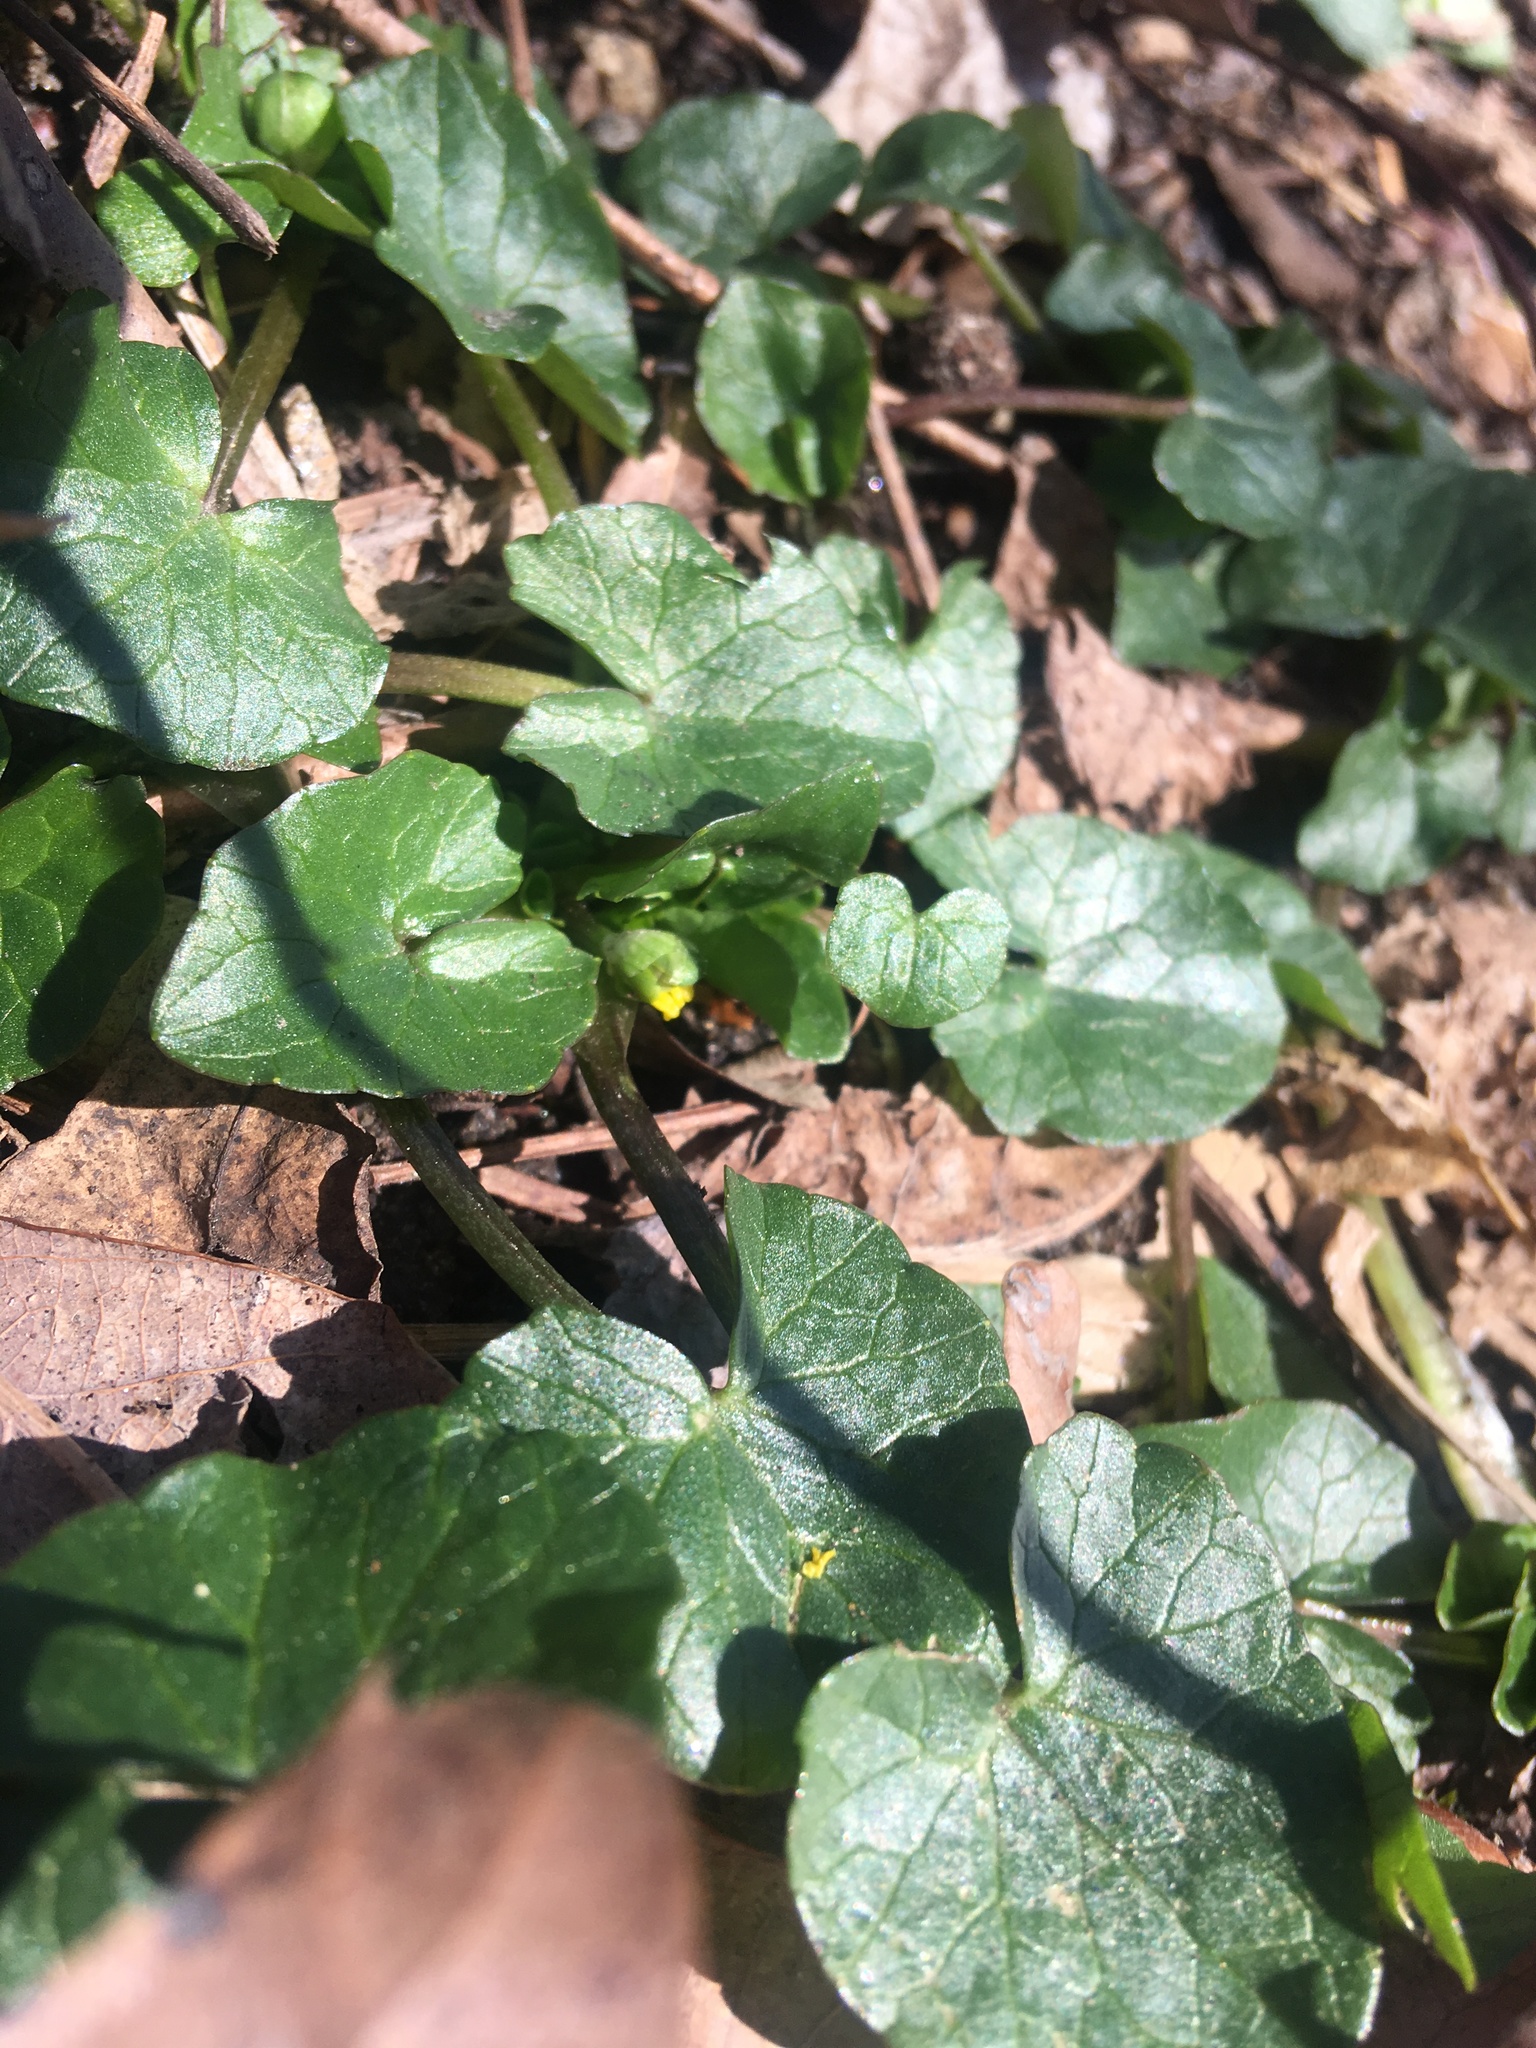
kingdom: Plantae
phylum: Tracheophyta
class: Magnoliopsida
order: Ranunculales
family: Ranunculaceae
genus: Ficaria
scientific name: Ficaria verna
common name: Lesser celandine
